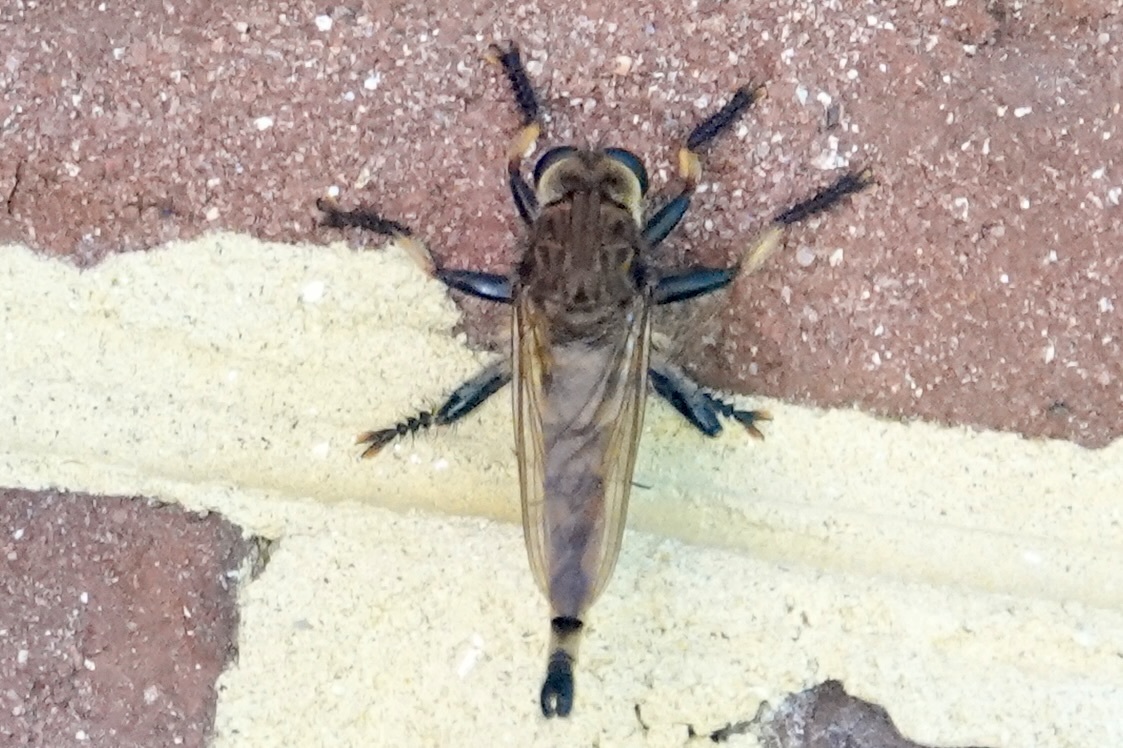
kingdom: Animalia
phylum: Arthropoda
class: Insecta
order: Diptera
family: Asilidae
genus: Promachus
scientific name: Promachus rufipes
